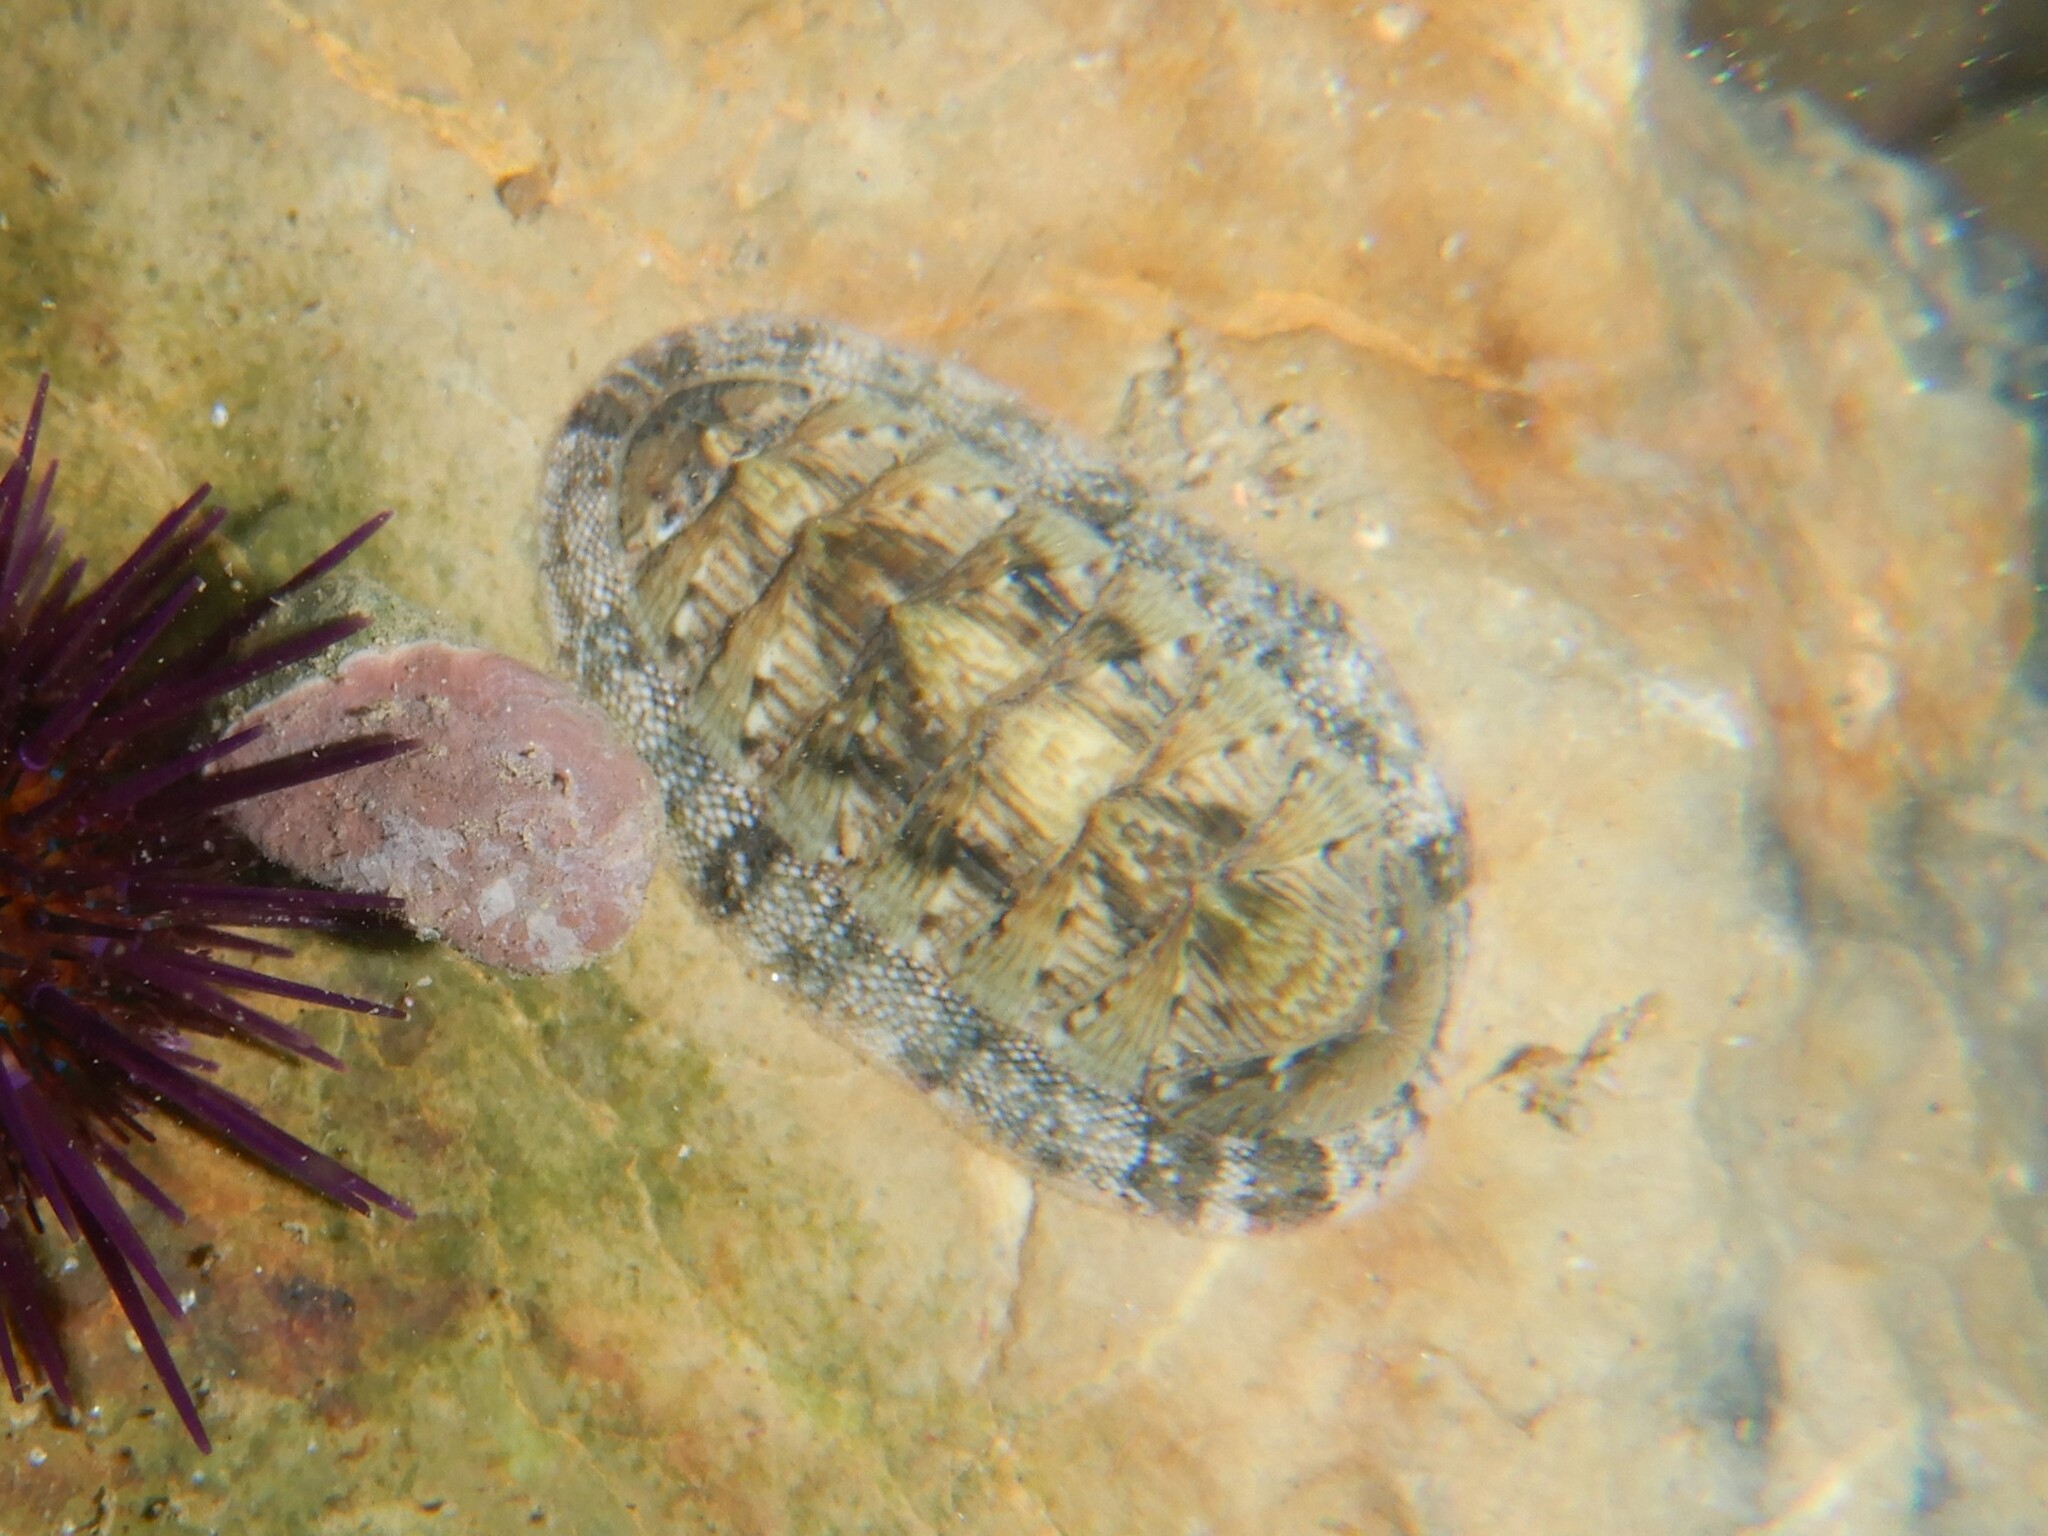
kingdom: Animalia
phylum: Mollusca
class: Polyplacophora
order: Chitonida
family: Chitonidae
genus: Rhyssoplax
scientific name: Rhyssoplax olivacea
